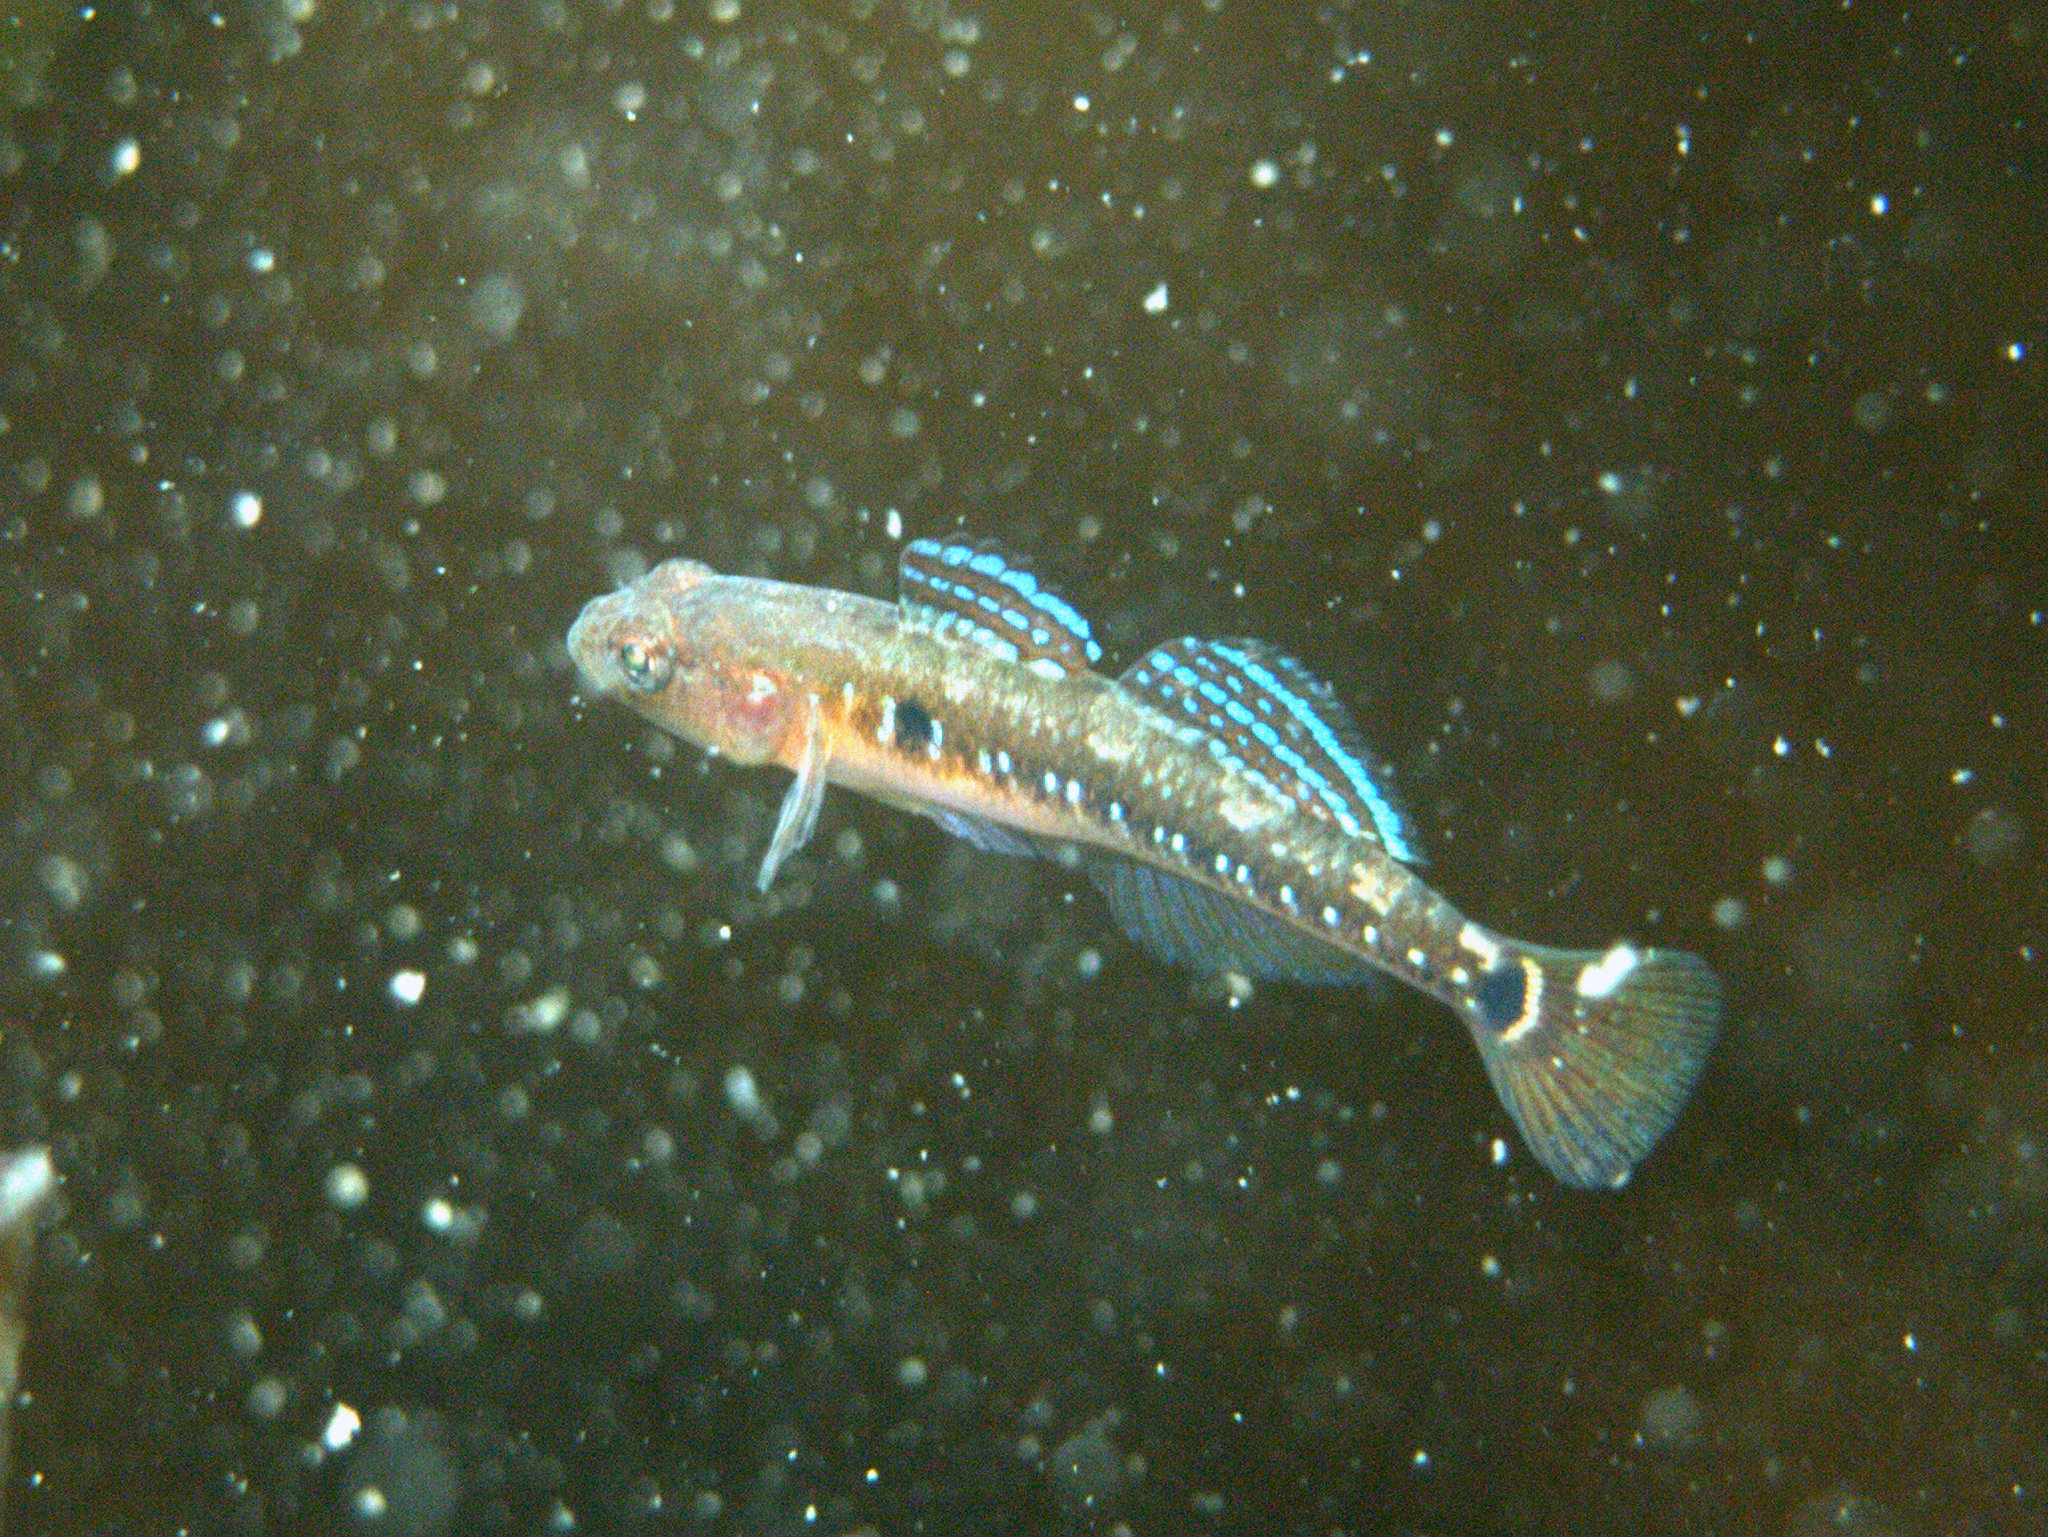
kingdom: Animalia
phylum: Chordata
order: Perciformes
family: Gobiidae
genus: Gobiusculus
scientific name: Gobiusculus flavescens
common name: Two-spotted goby
